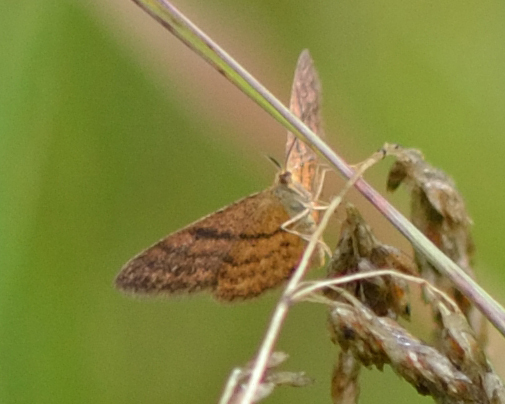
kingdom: Animalia
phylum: Arthropoda
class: Insecta
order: Lepidoptera
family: Geometridae
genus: Idaea
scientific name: Idaea serpentata
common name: Ochraceous wave
